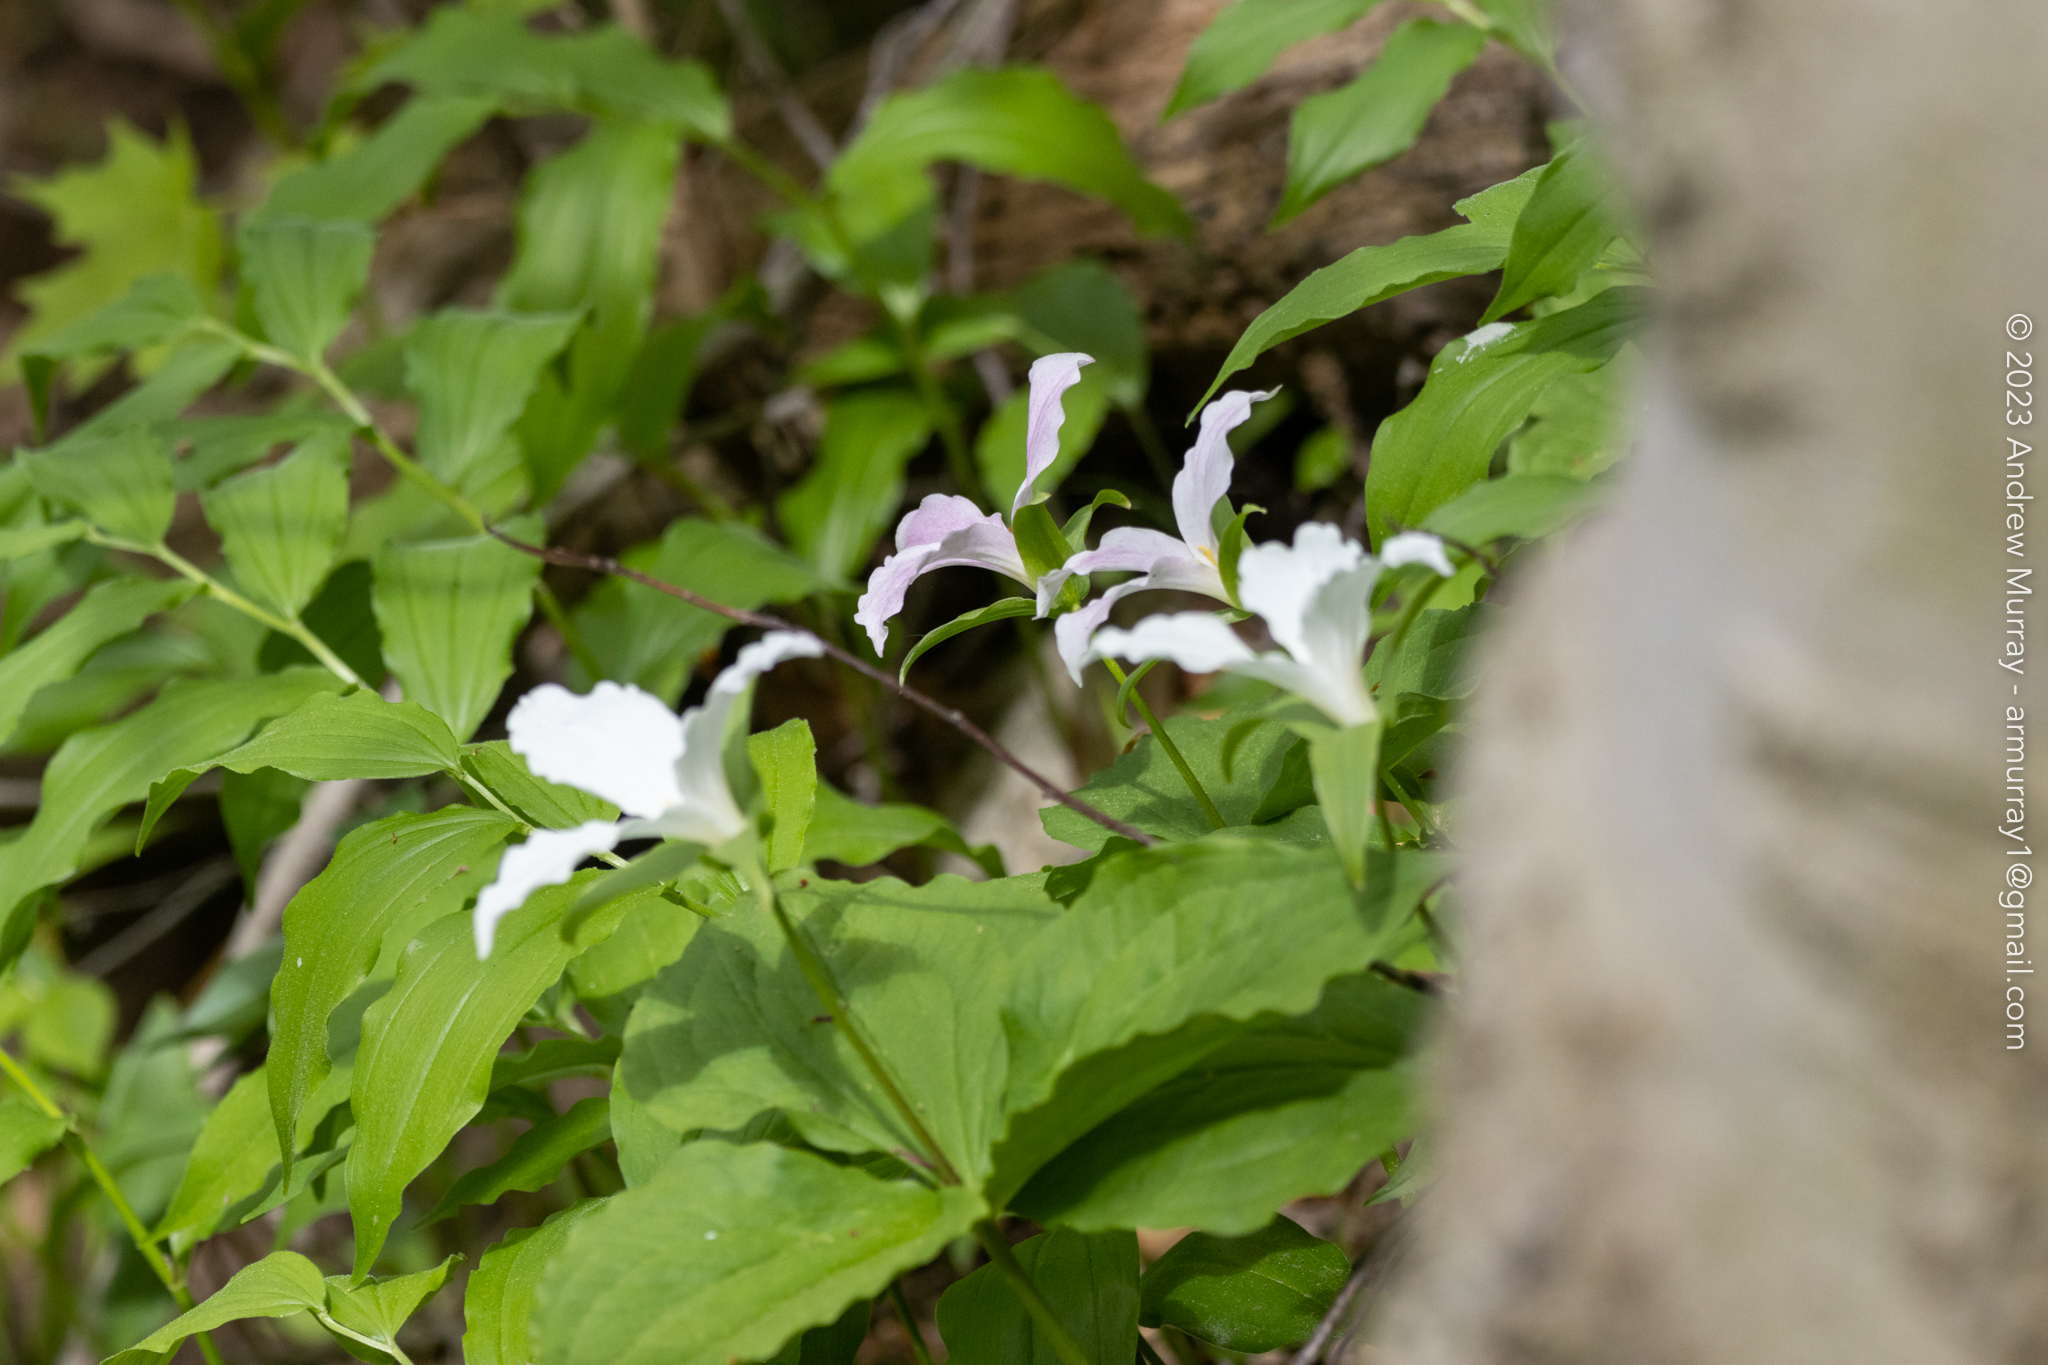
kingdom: Plantae
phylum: Tracheophyta
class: Liliopsida
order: Liliales
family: Melanthiaceae
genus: Trillium
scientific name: Trillium grandiflorum
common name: Great white trillium
